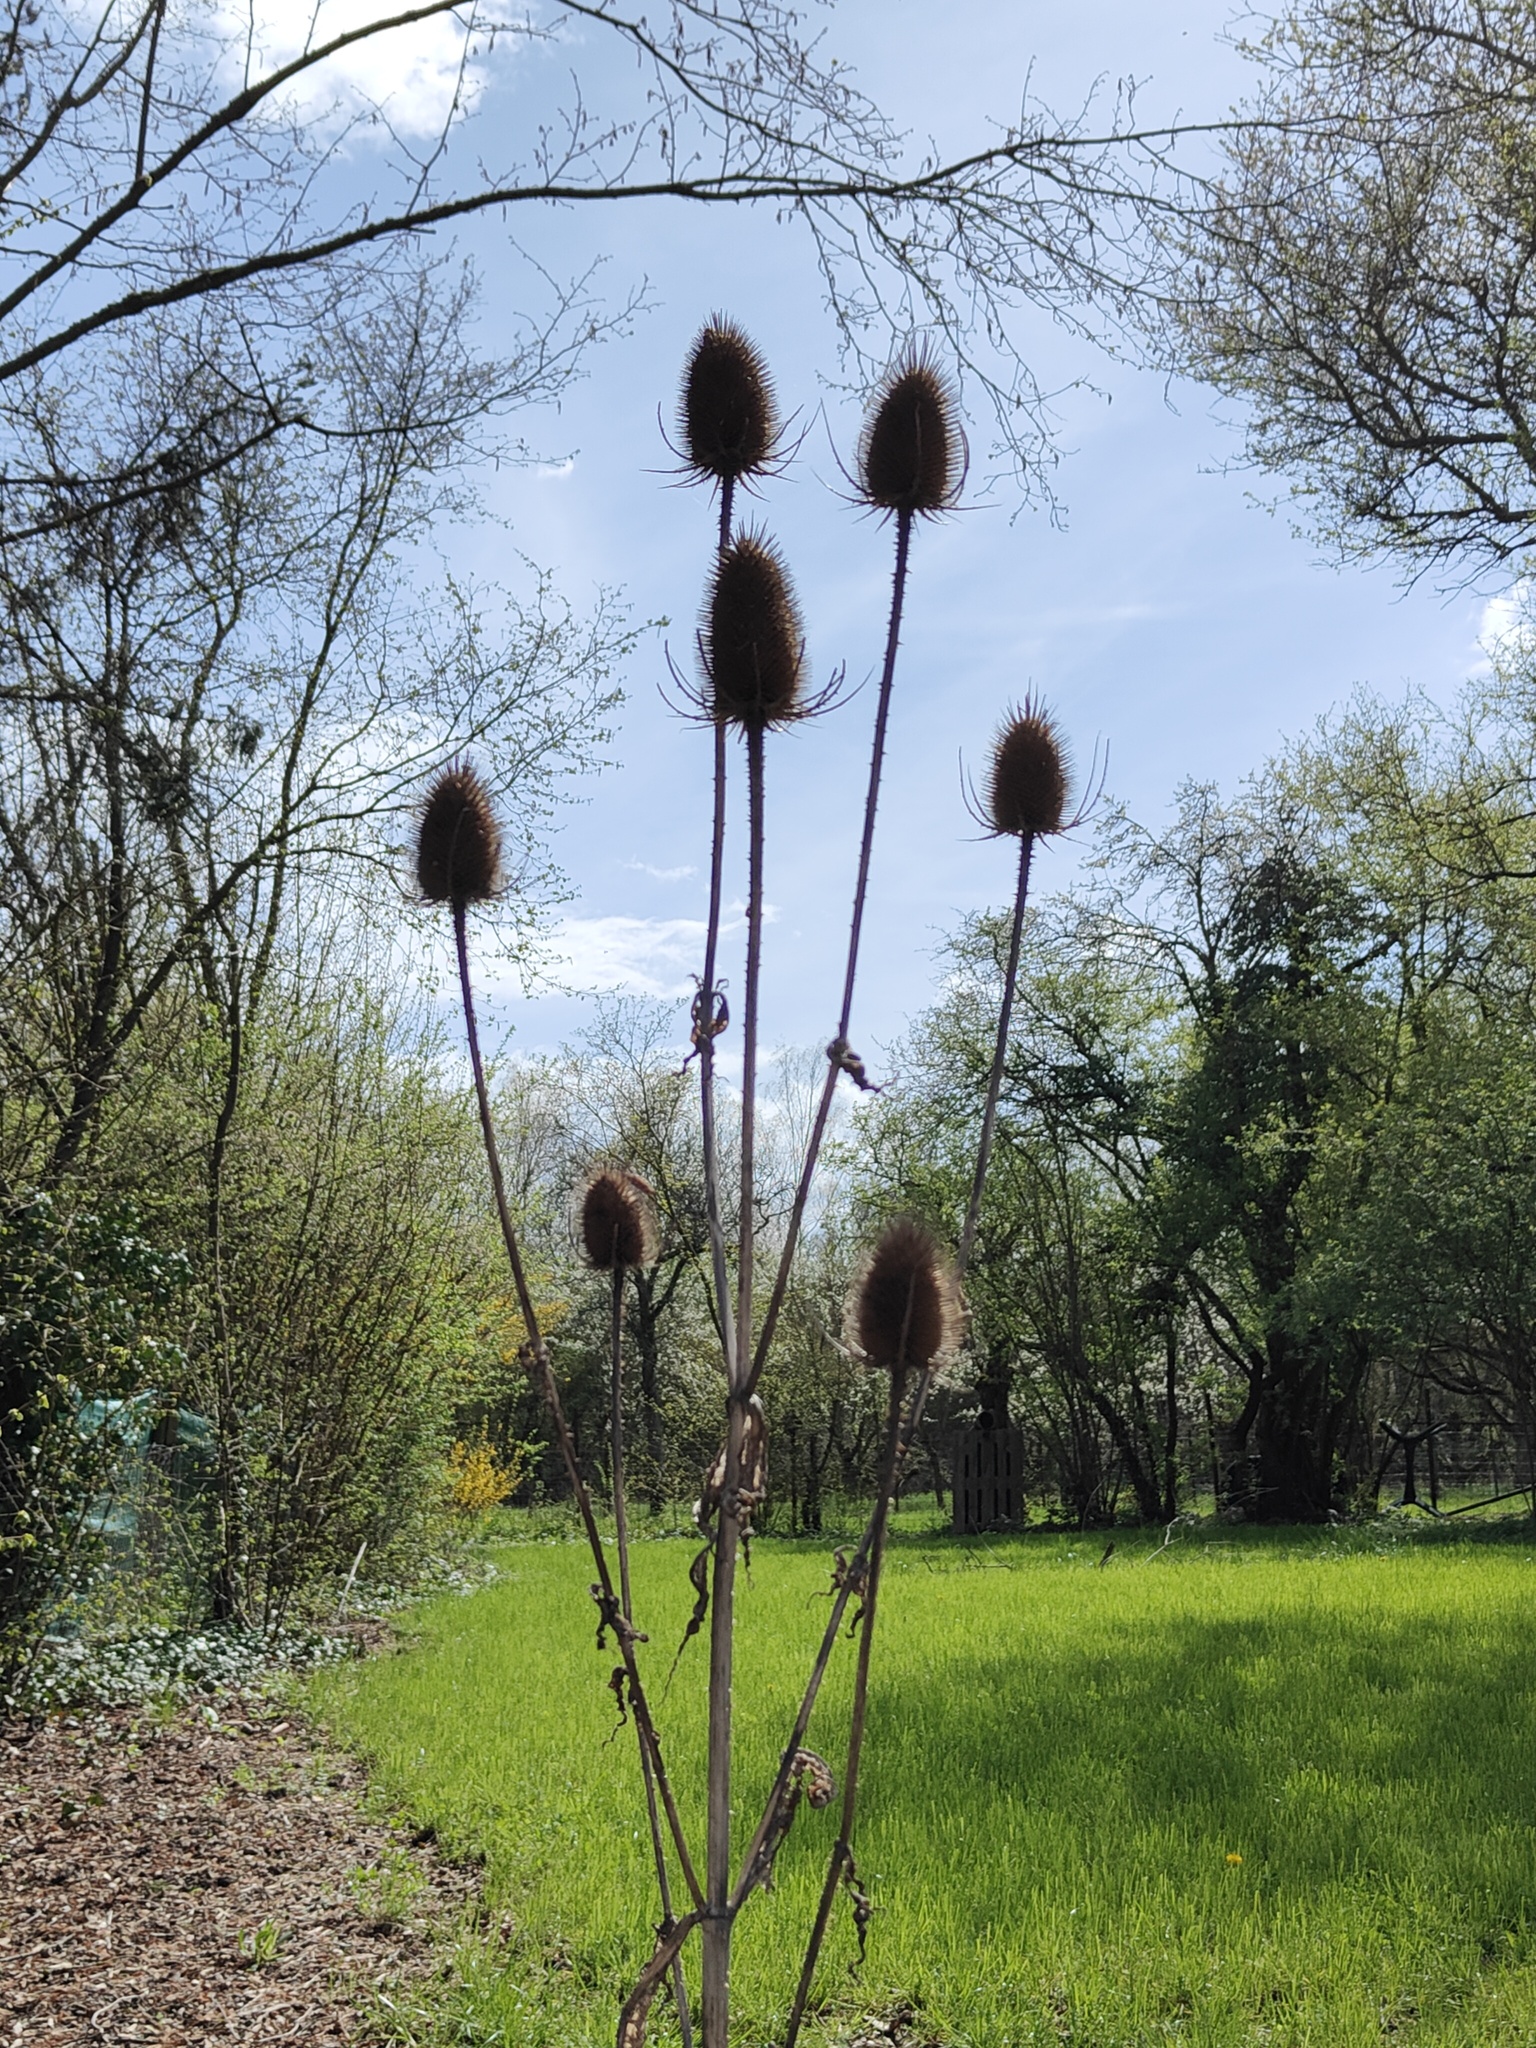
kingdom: Plantae
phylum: Tracheophyta
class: Magnoliopsida
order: Dipsacales
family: Caprifoliaceae
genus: Dipsacus
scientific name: Dipsacus fullonum
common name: Teasel
